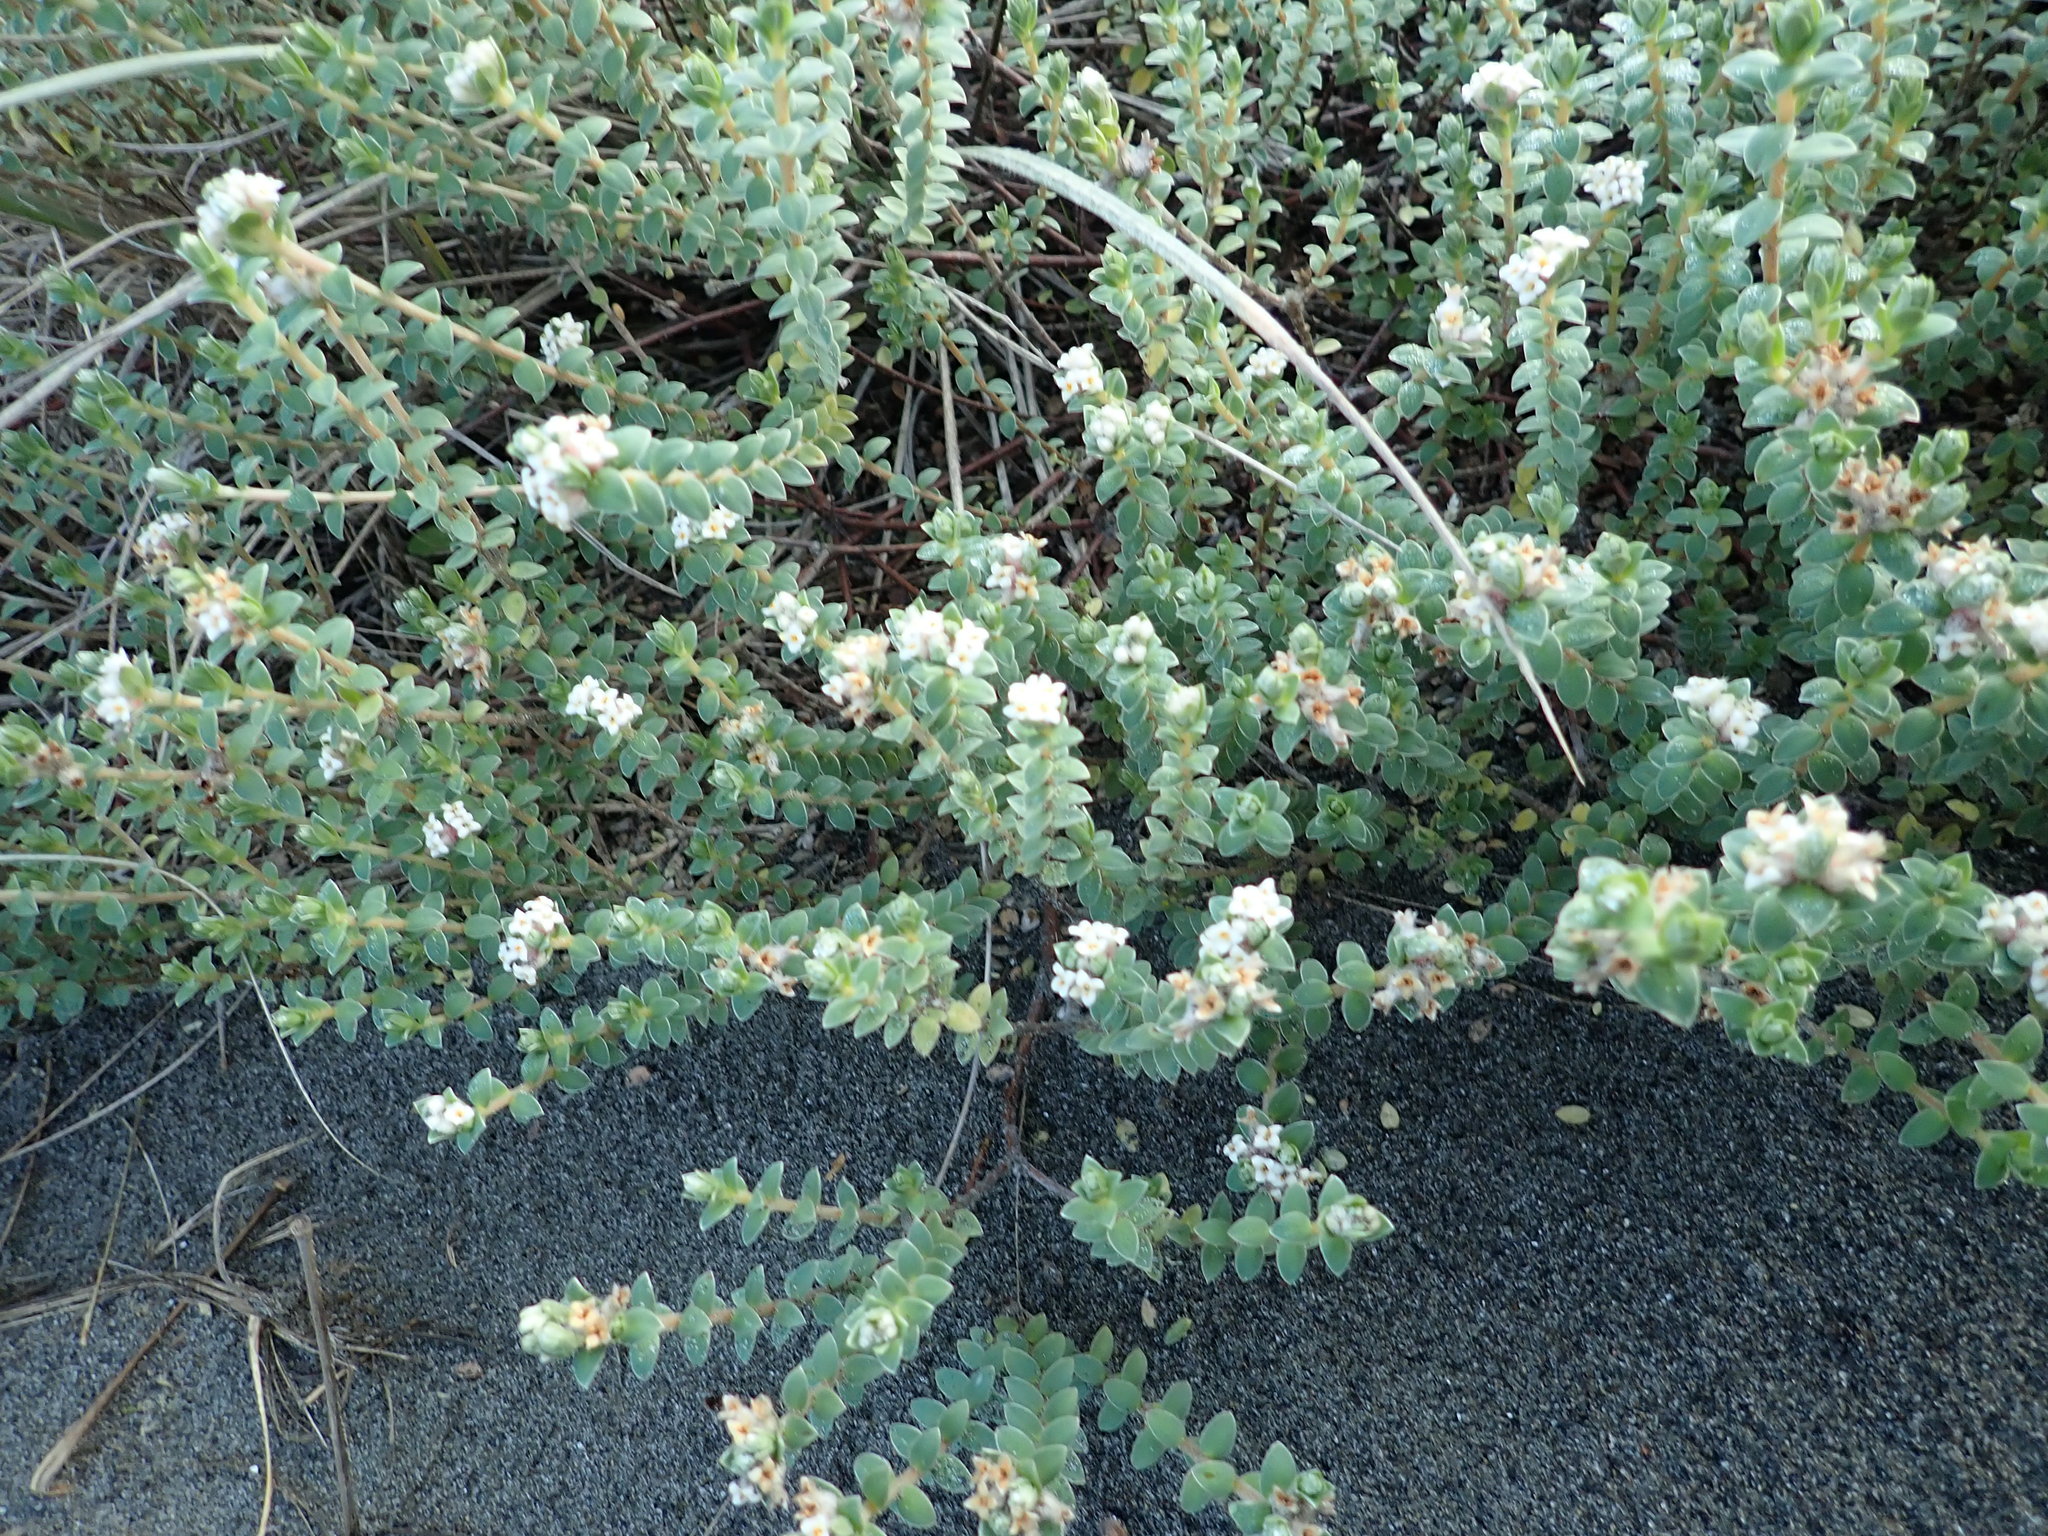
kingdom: Plantae
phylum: Tracheophyta
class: Magnoliopsida
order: Malvales
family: Thymelaeaceae
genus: Pimelea
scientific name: Pimelea villosa
